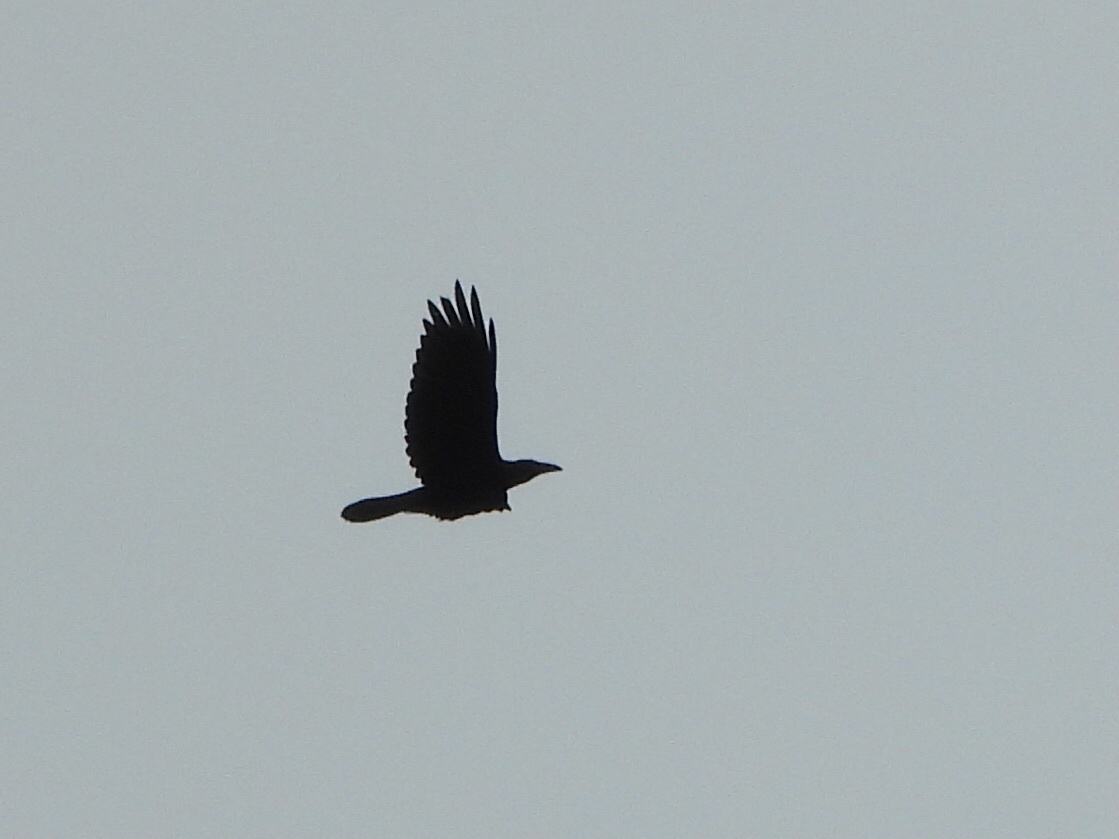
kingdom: Animalia
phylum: Chordata
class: Aves
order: Passeriformes
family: Corvidae
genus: Corvus
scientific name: Corvus corax
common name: Common raven
